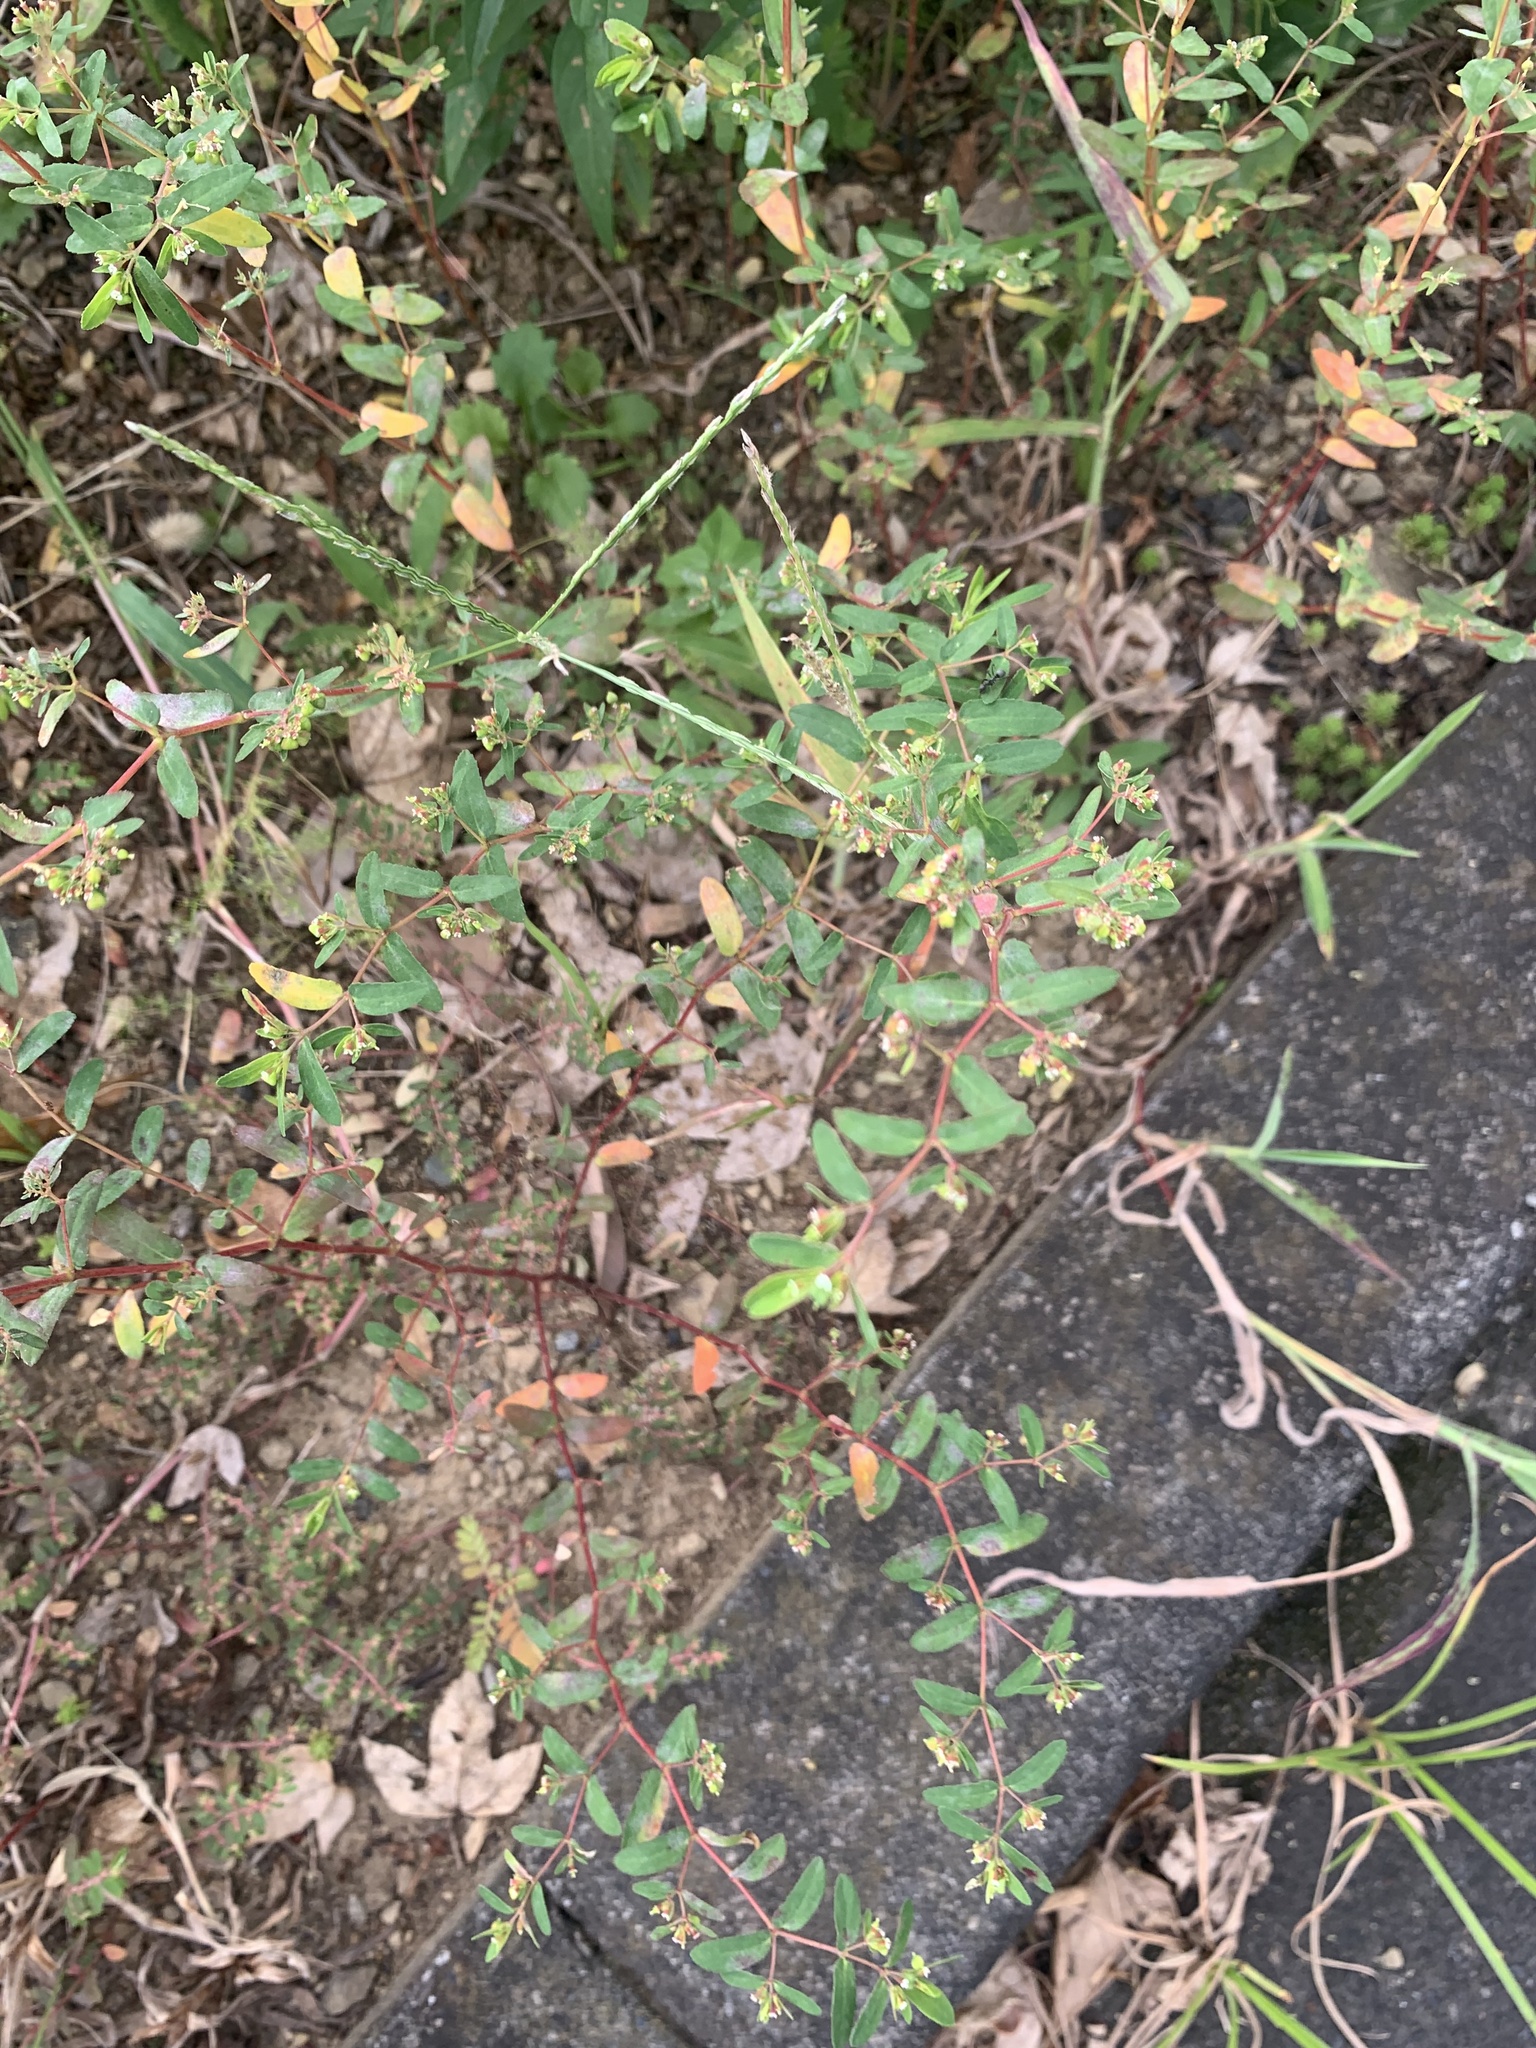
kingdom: Plantae
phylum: Tracheophyta
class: Magnoliopsida
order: Malpighiales
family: Euphorbiaceae
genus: Euphorbia
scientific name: Euphorbia nutans
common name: Eyebane
